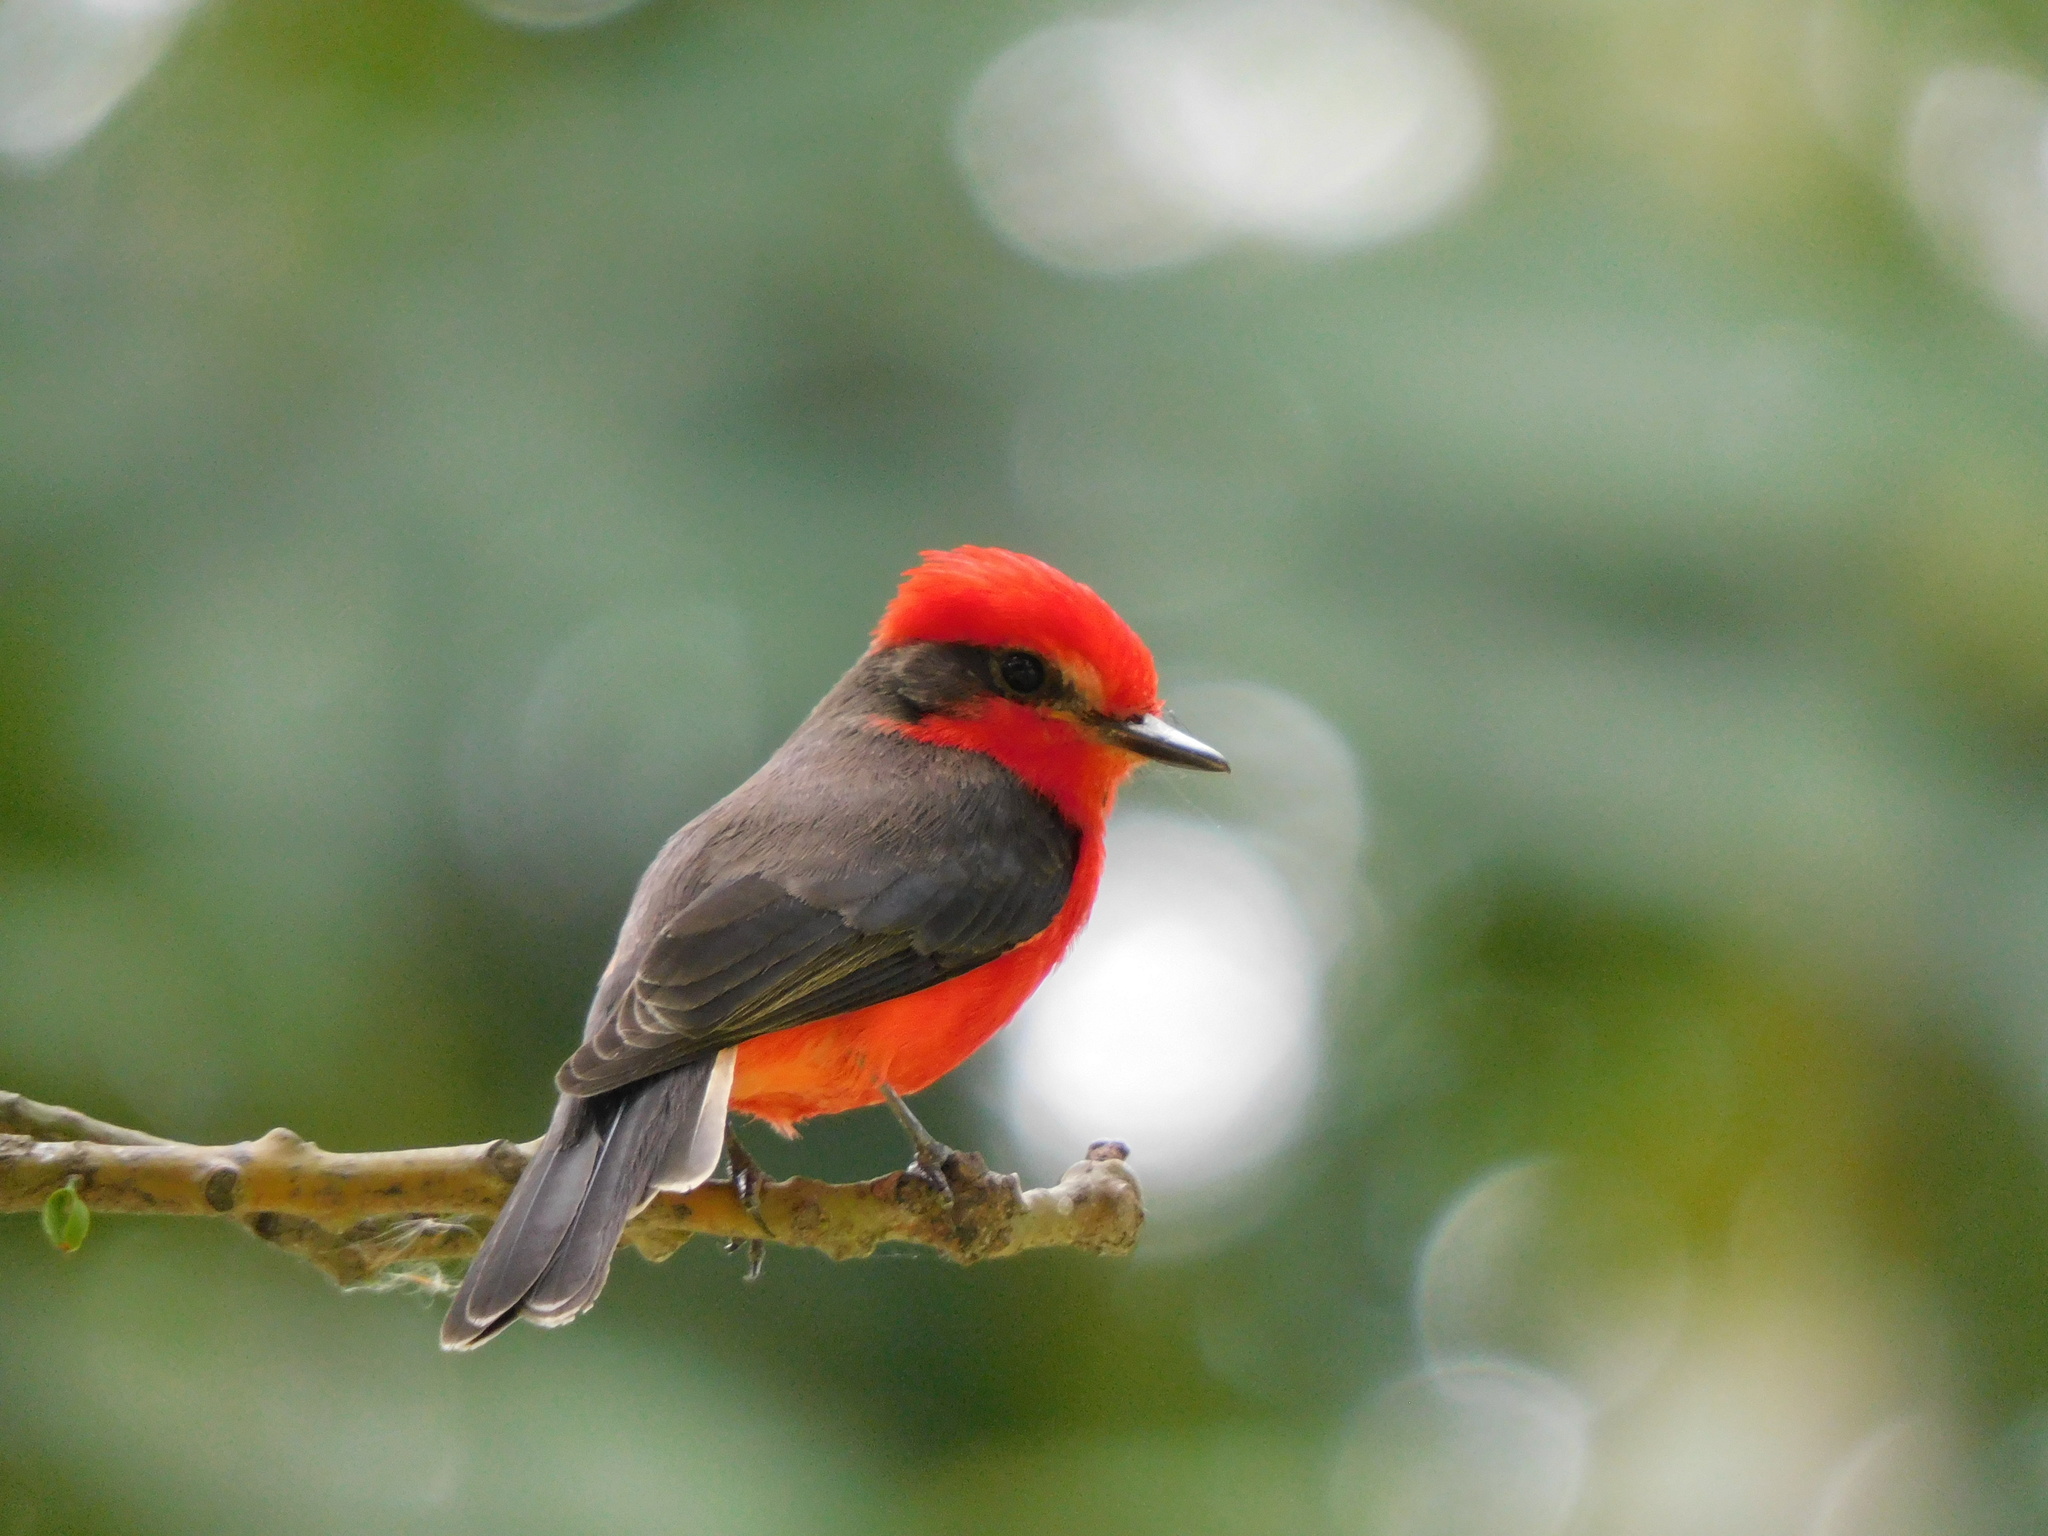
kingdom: Animalia
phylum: Chordata
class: Aves
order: Passeriformes
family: Tyrannidae
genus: Pyrocephalus
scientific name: Pyrocephalus rubinus
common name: Vermilion flycatcher
